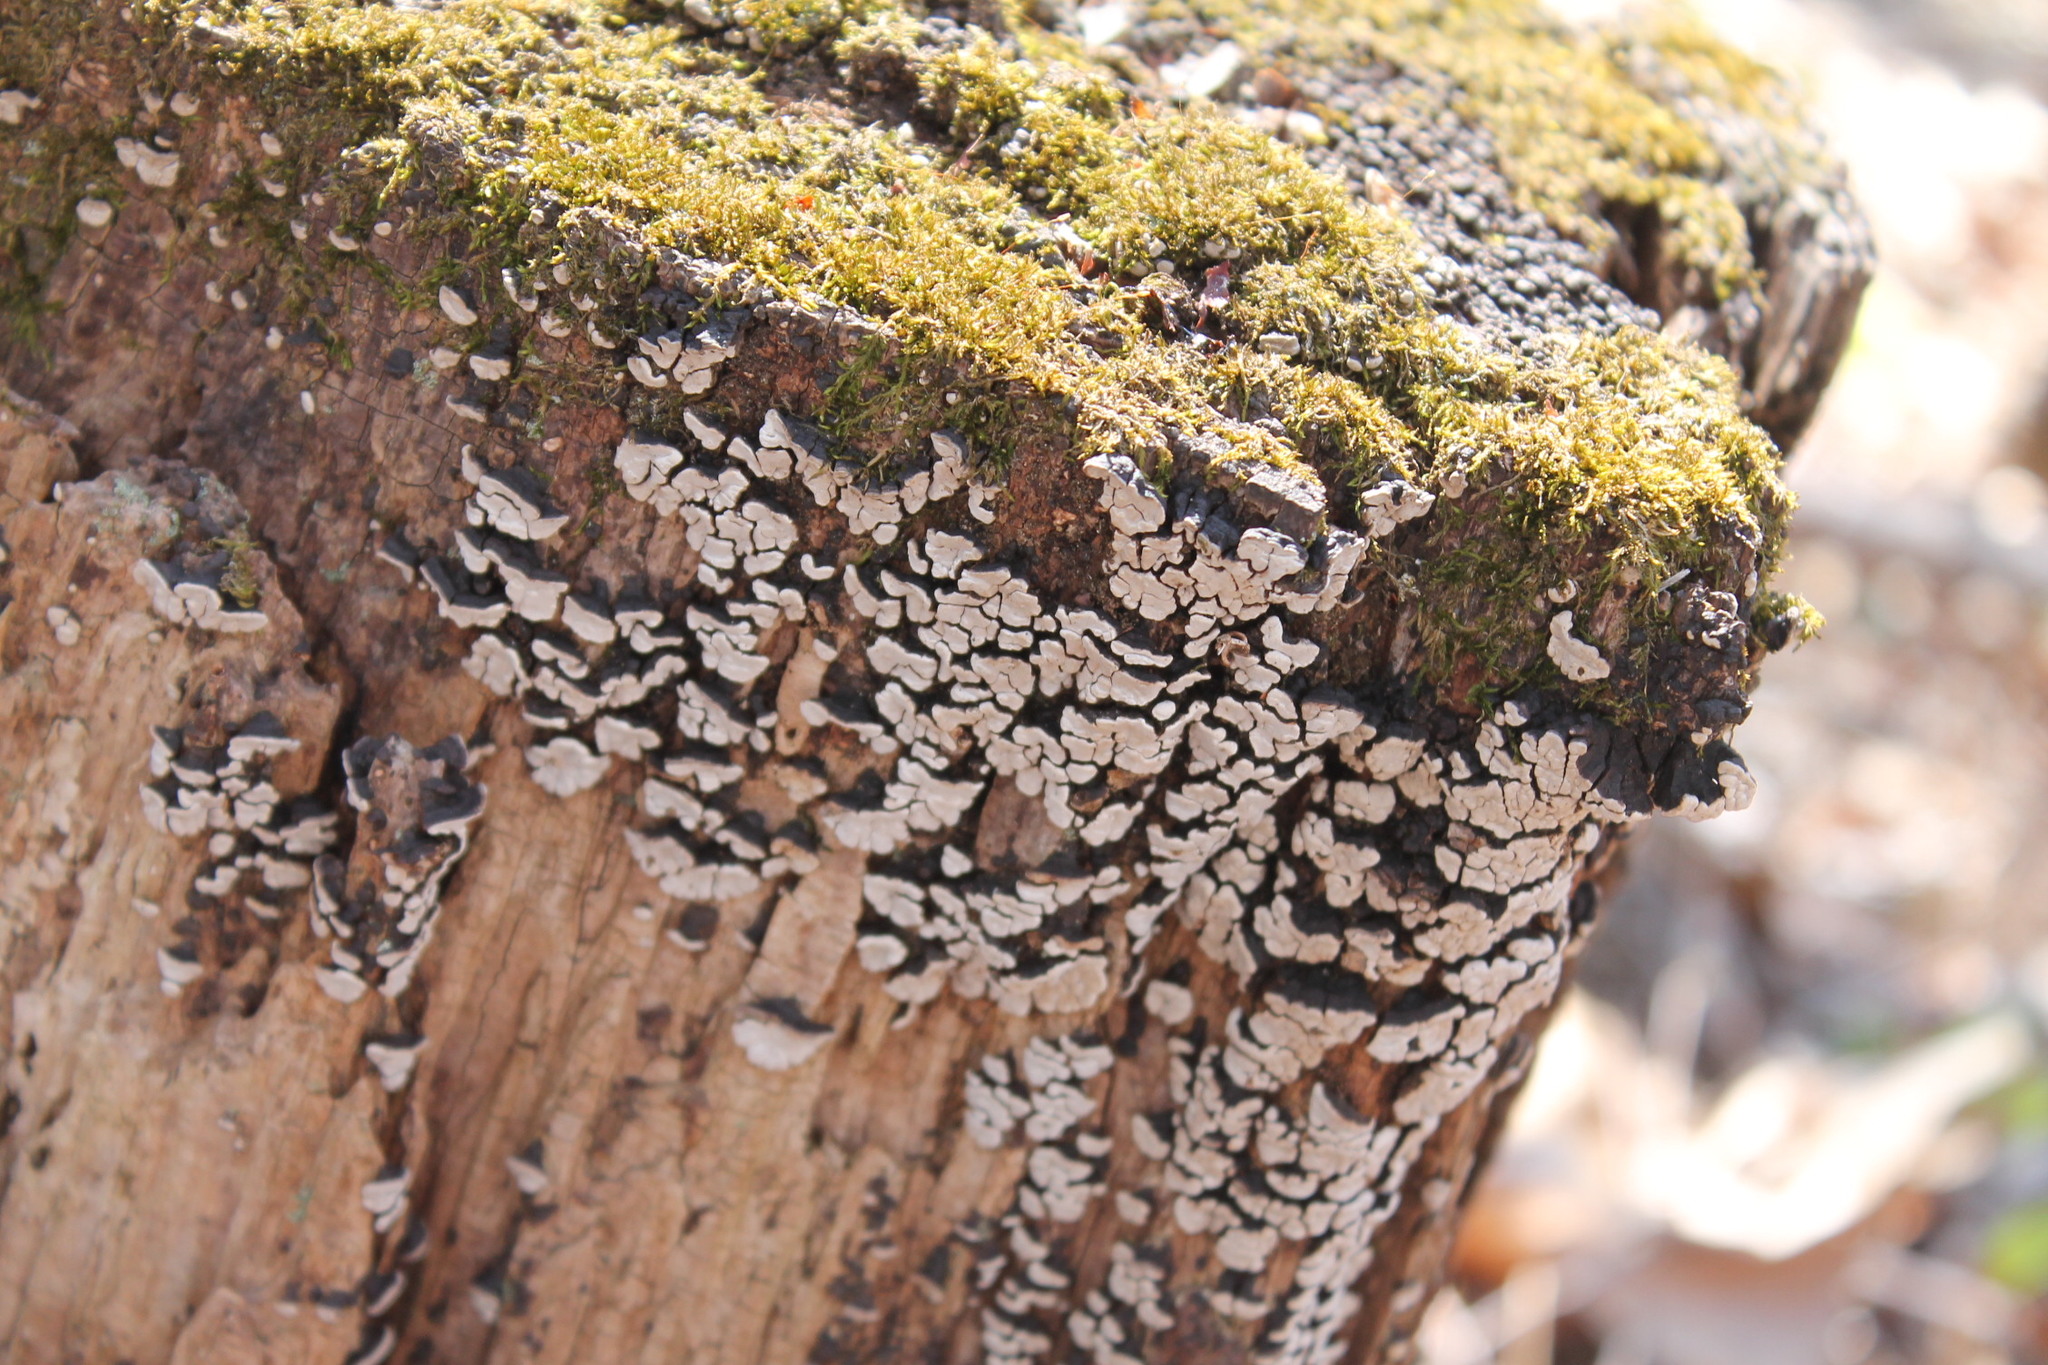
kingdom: Fungi
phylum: Basidiomycota
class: Agaricomycetes
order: Russulales
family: Stereaceae
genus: Xylobolus
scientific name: Xylobolus frustulatus
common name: Ceramic parchment
